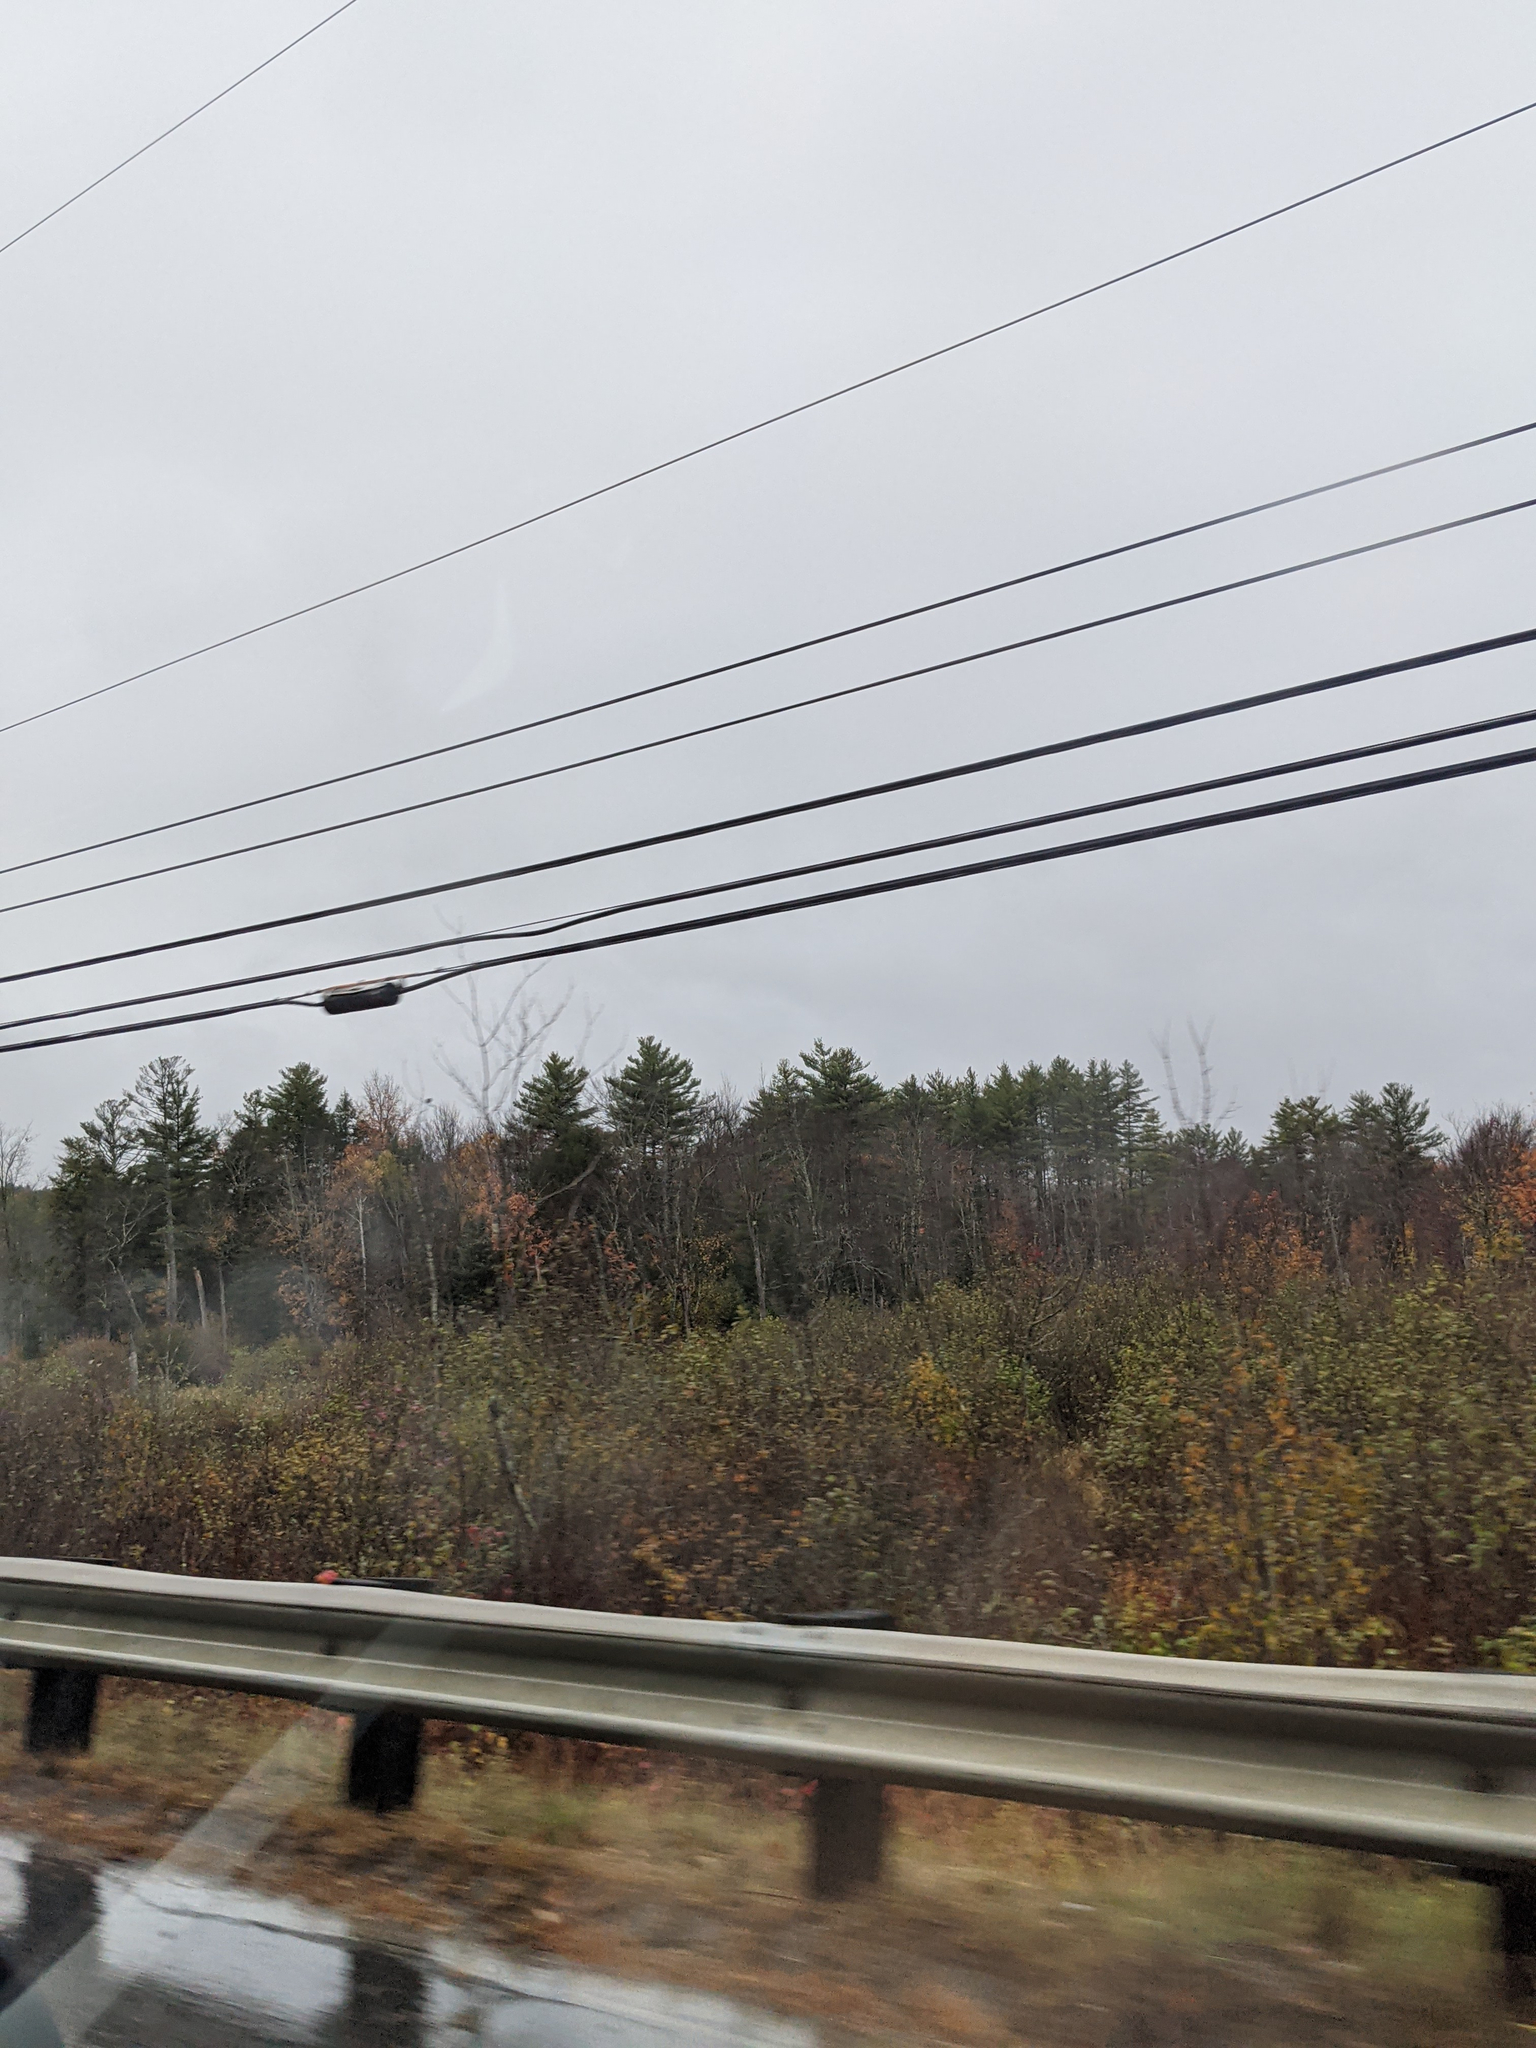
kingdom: Plantae
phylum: Tracheophyta
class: Pinopsida
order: Pinales
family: Pinaceae
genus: Pinus
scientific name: Pinus strobus
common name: Weymouth pine
